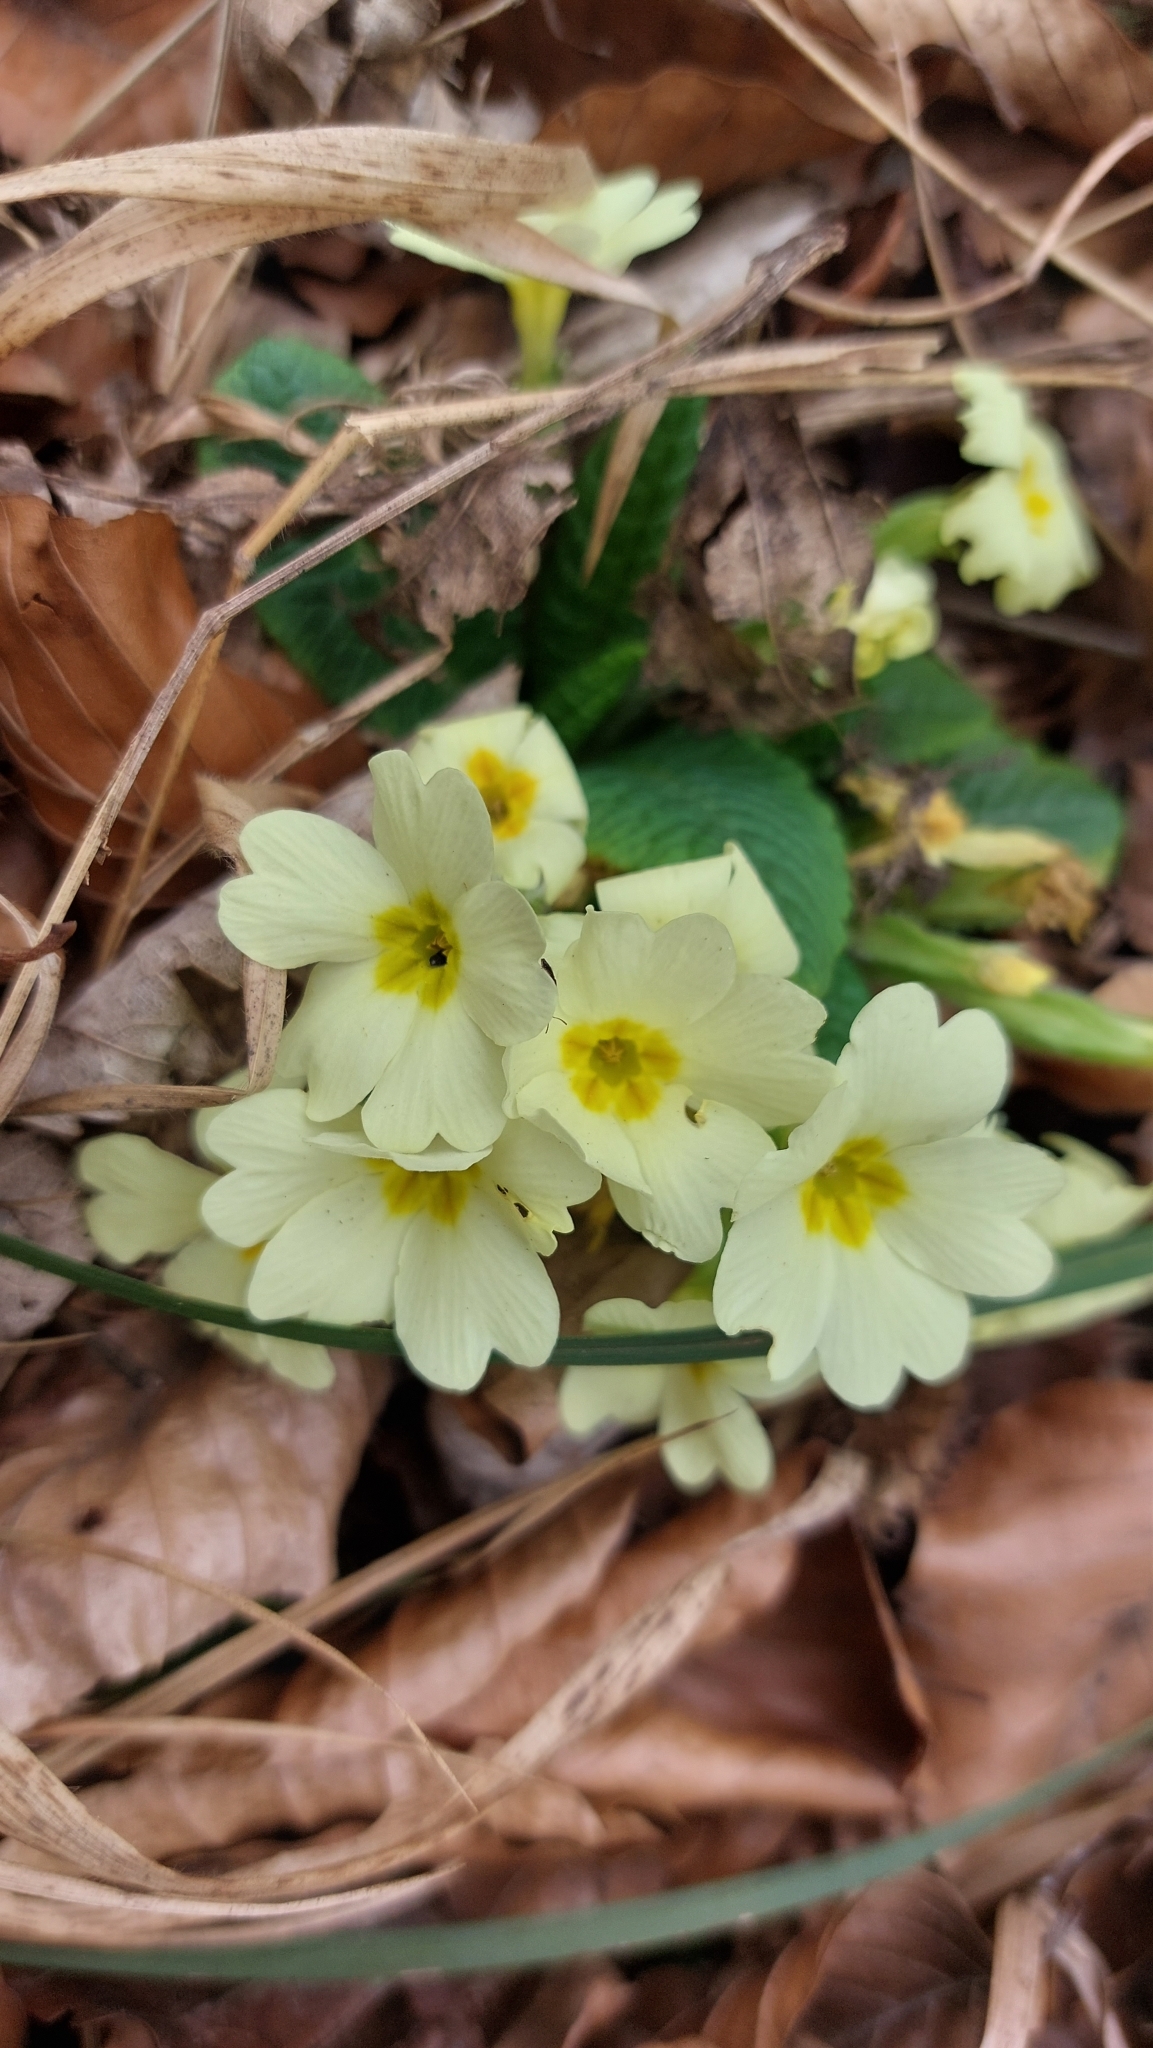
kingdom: Plantae
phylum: Tracheophyta
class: Magnoliopsida
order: Ericales
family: Primulaceae
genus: Primula
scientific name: Primula vulgaris
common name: Primrose
